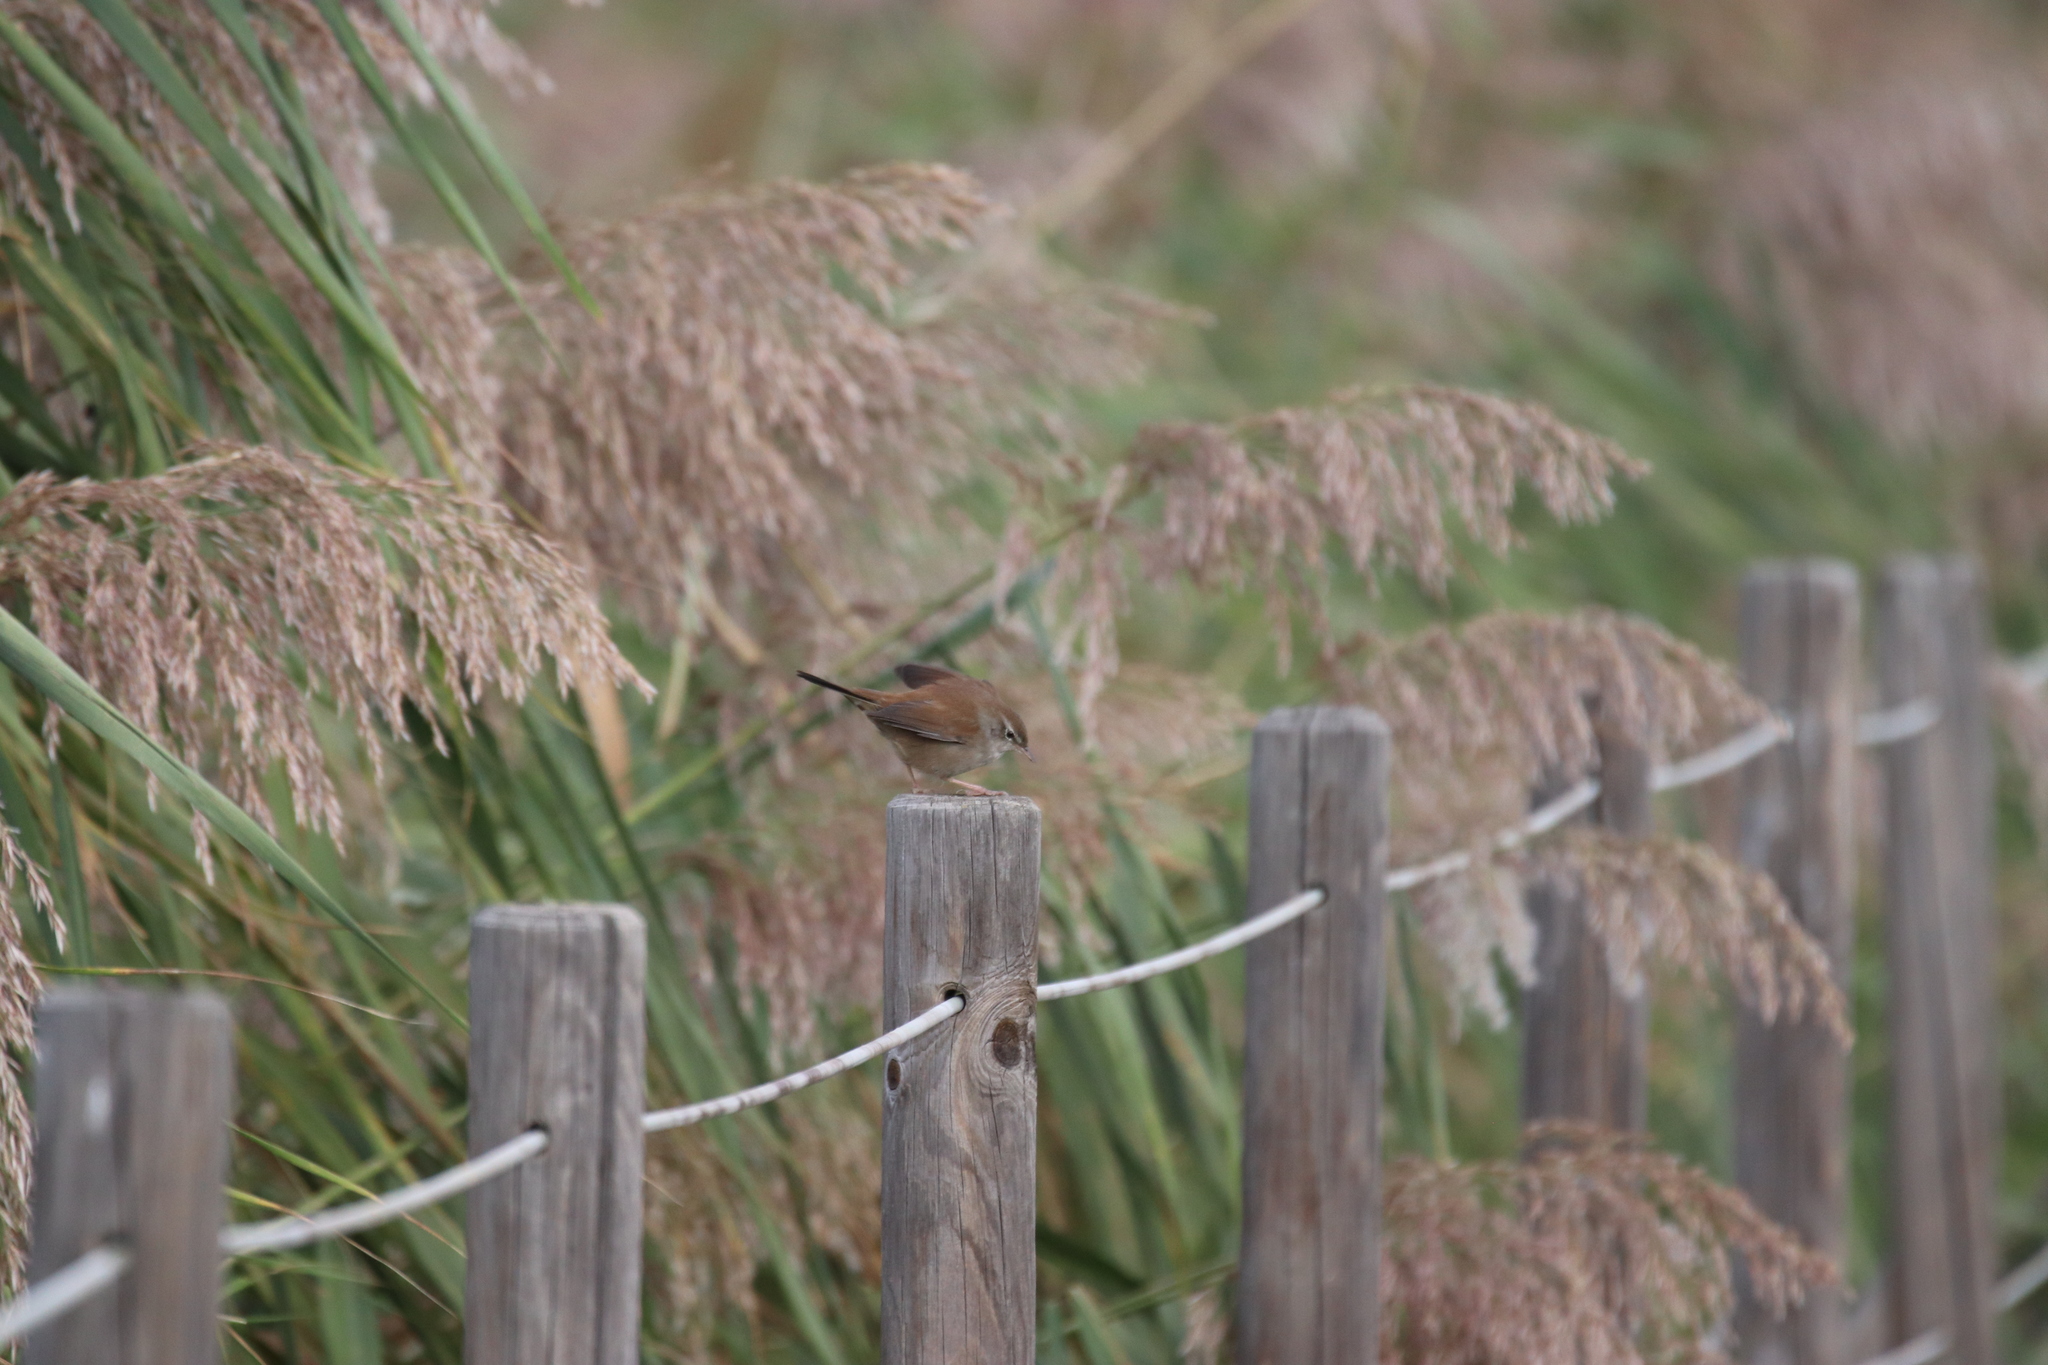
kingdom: Animalia
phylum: Chordata
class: Aves
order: Passeriformes
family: Cettiidae
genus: Cettia
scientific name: Cettia cetti
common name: Cetti's warbler
